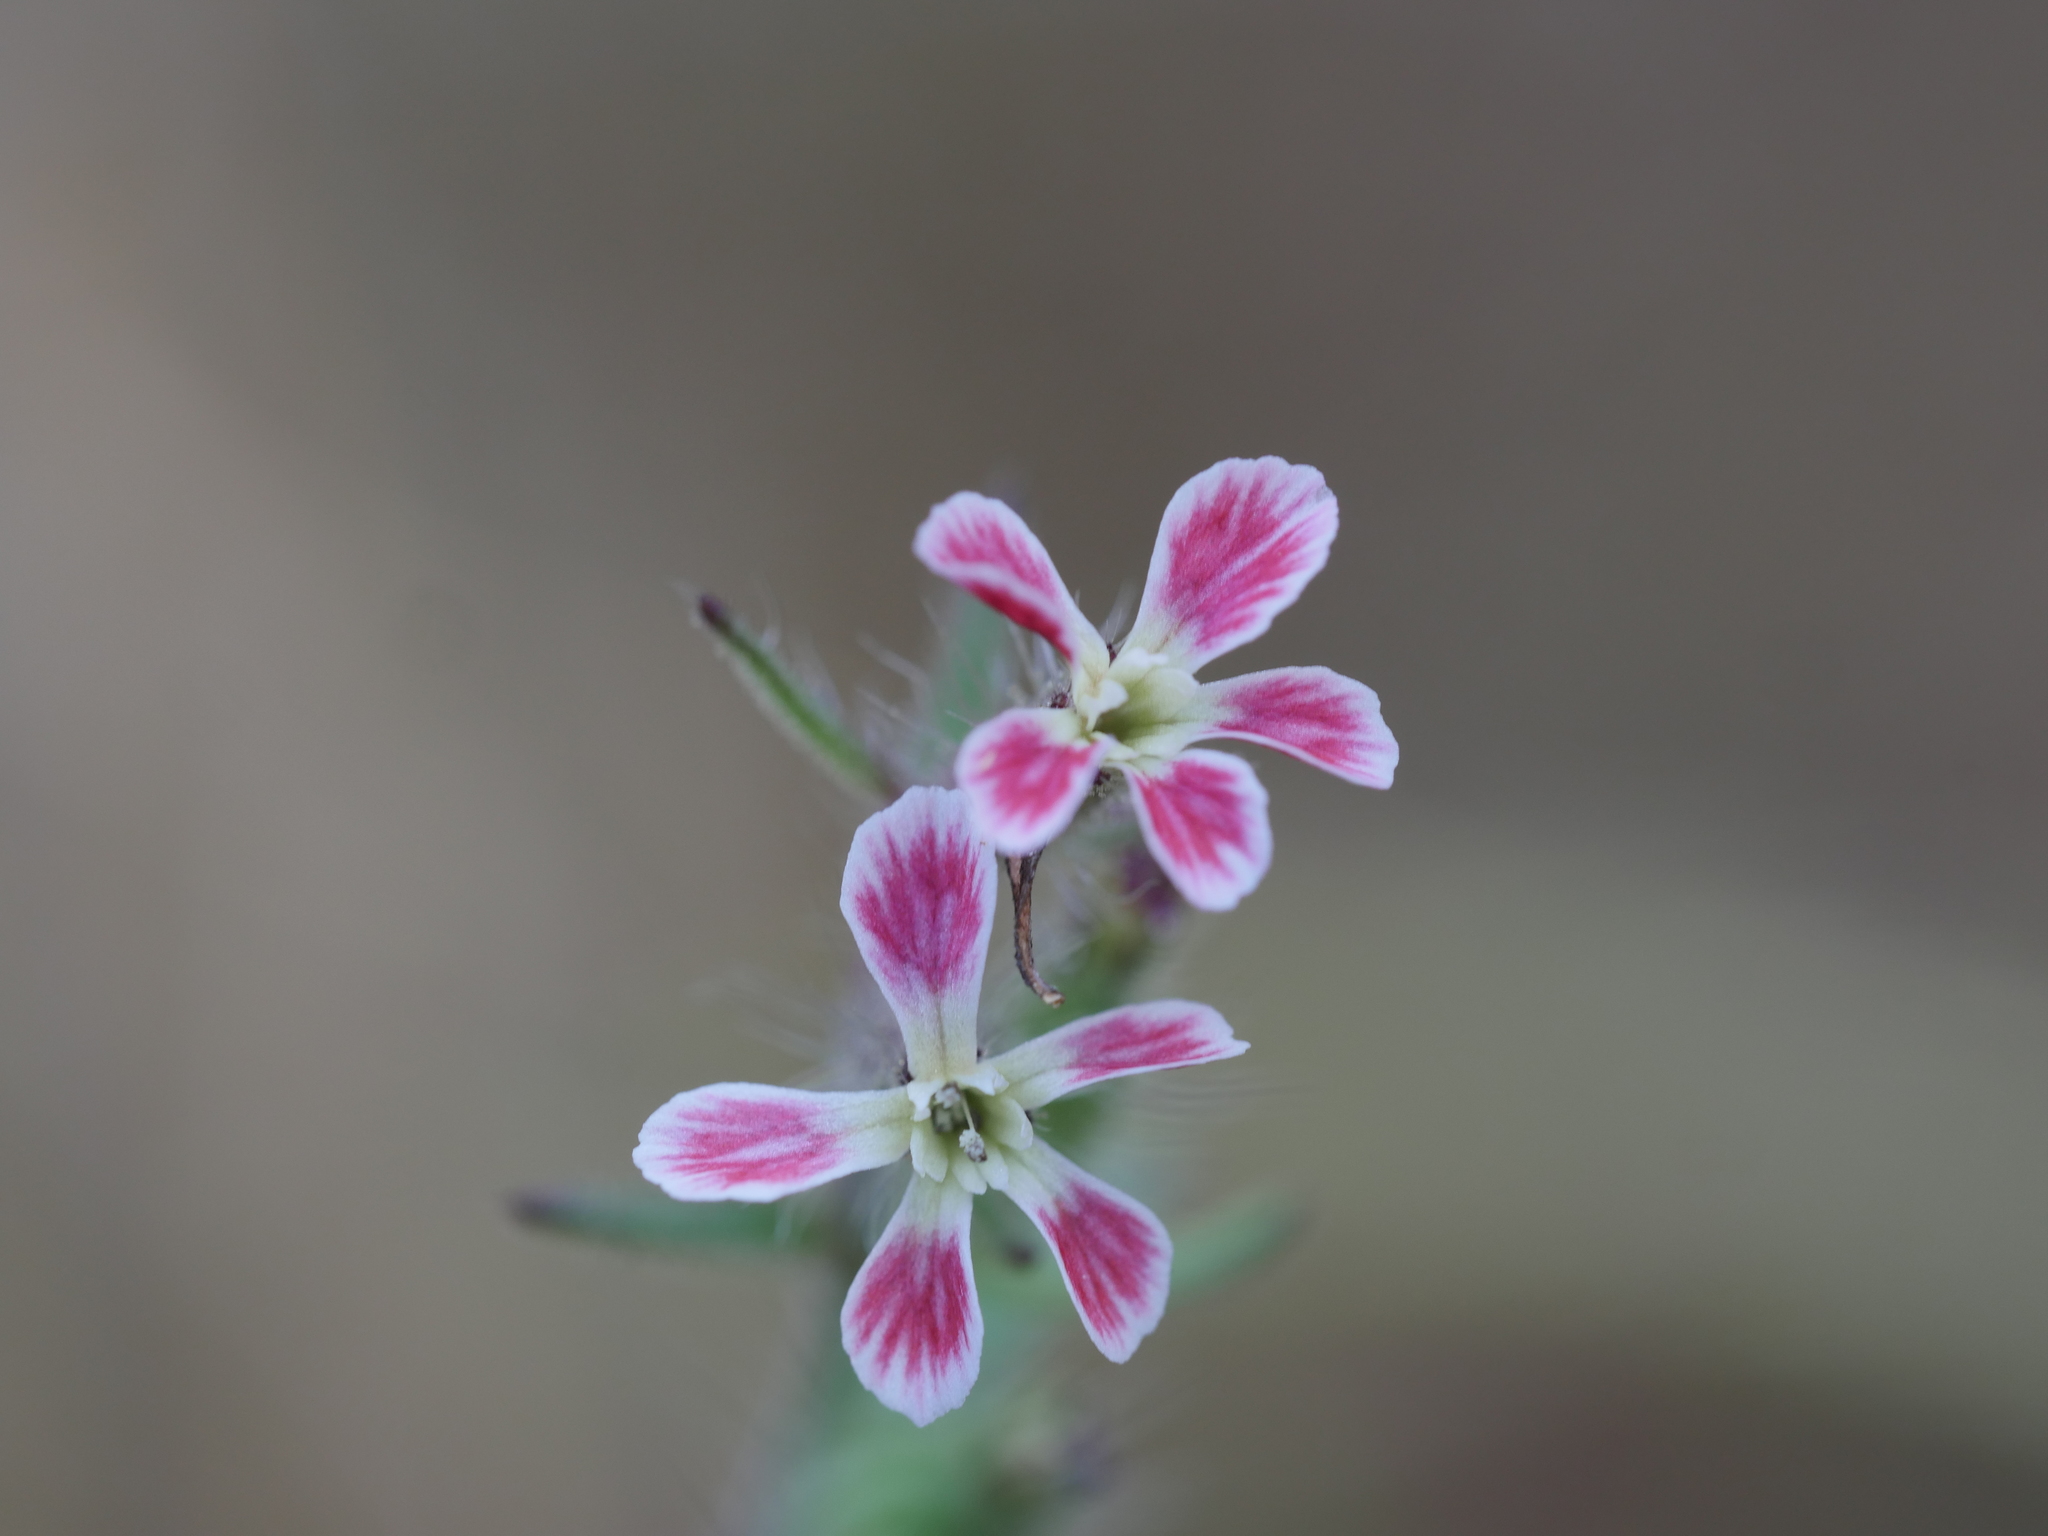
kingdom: Plantae
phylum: Tracheophyta
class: Magnoliopsida
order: Caryophyllales
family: Caryophyllaceae
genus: Silene
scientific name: Silene gallica
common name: Small-flowered catchfly
